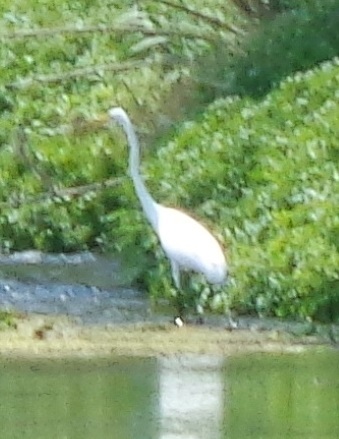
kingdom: Animalia
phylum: Chordata
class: Aves
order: Pelecaniformes
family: Ardeidae
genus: Ardea
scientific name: Ardea alba
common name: Great egret
